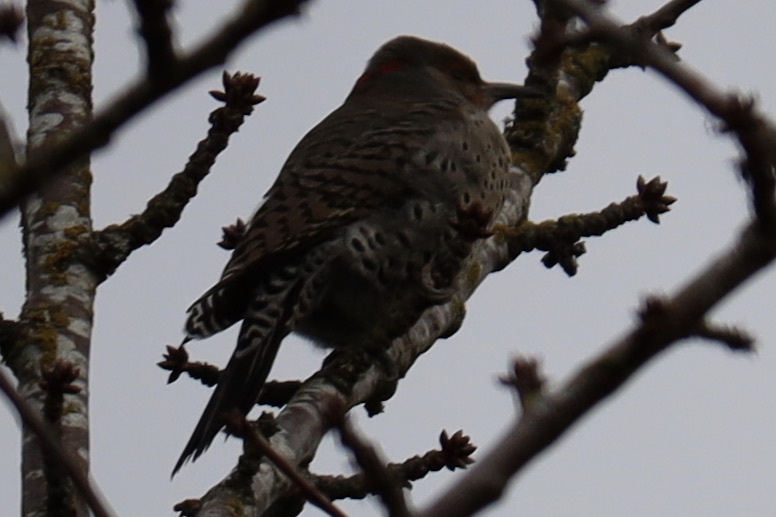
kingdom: Animalia
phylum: Chordata
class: Aves
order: Piciformes
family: Picidae
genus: Colaptes
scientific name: Colaptes auratus
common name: Northern flicker
